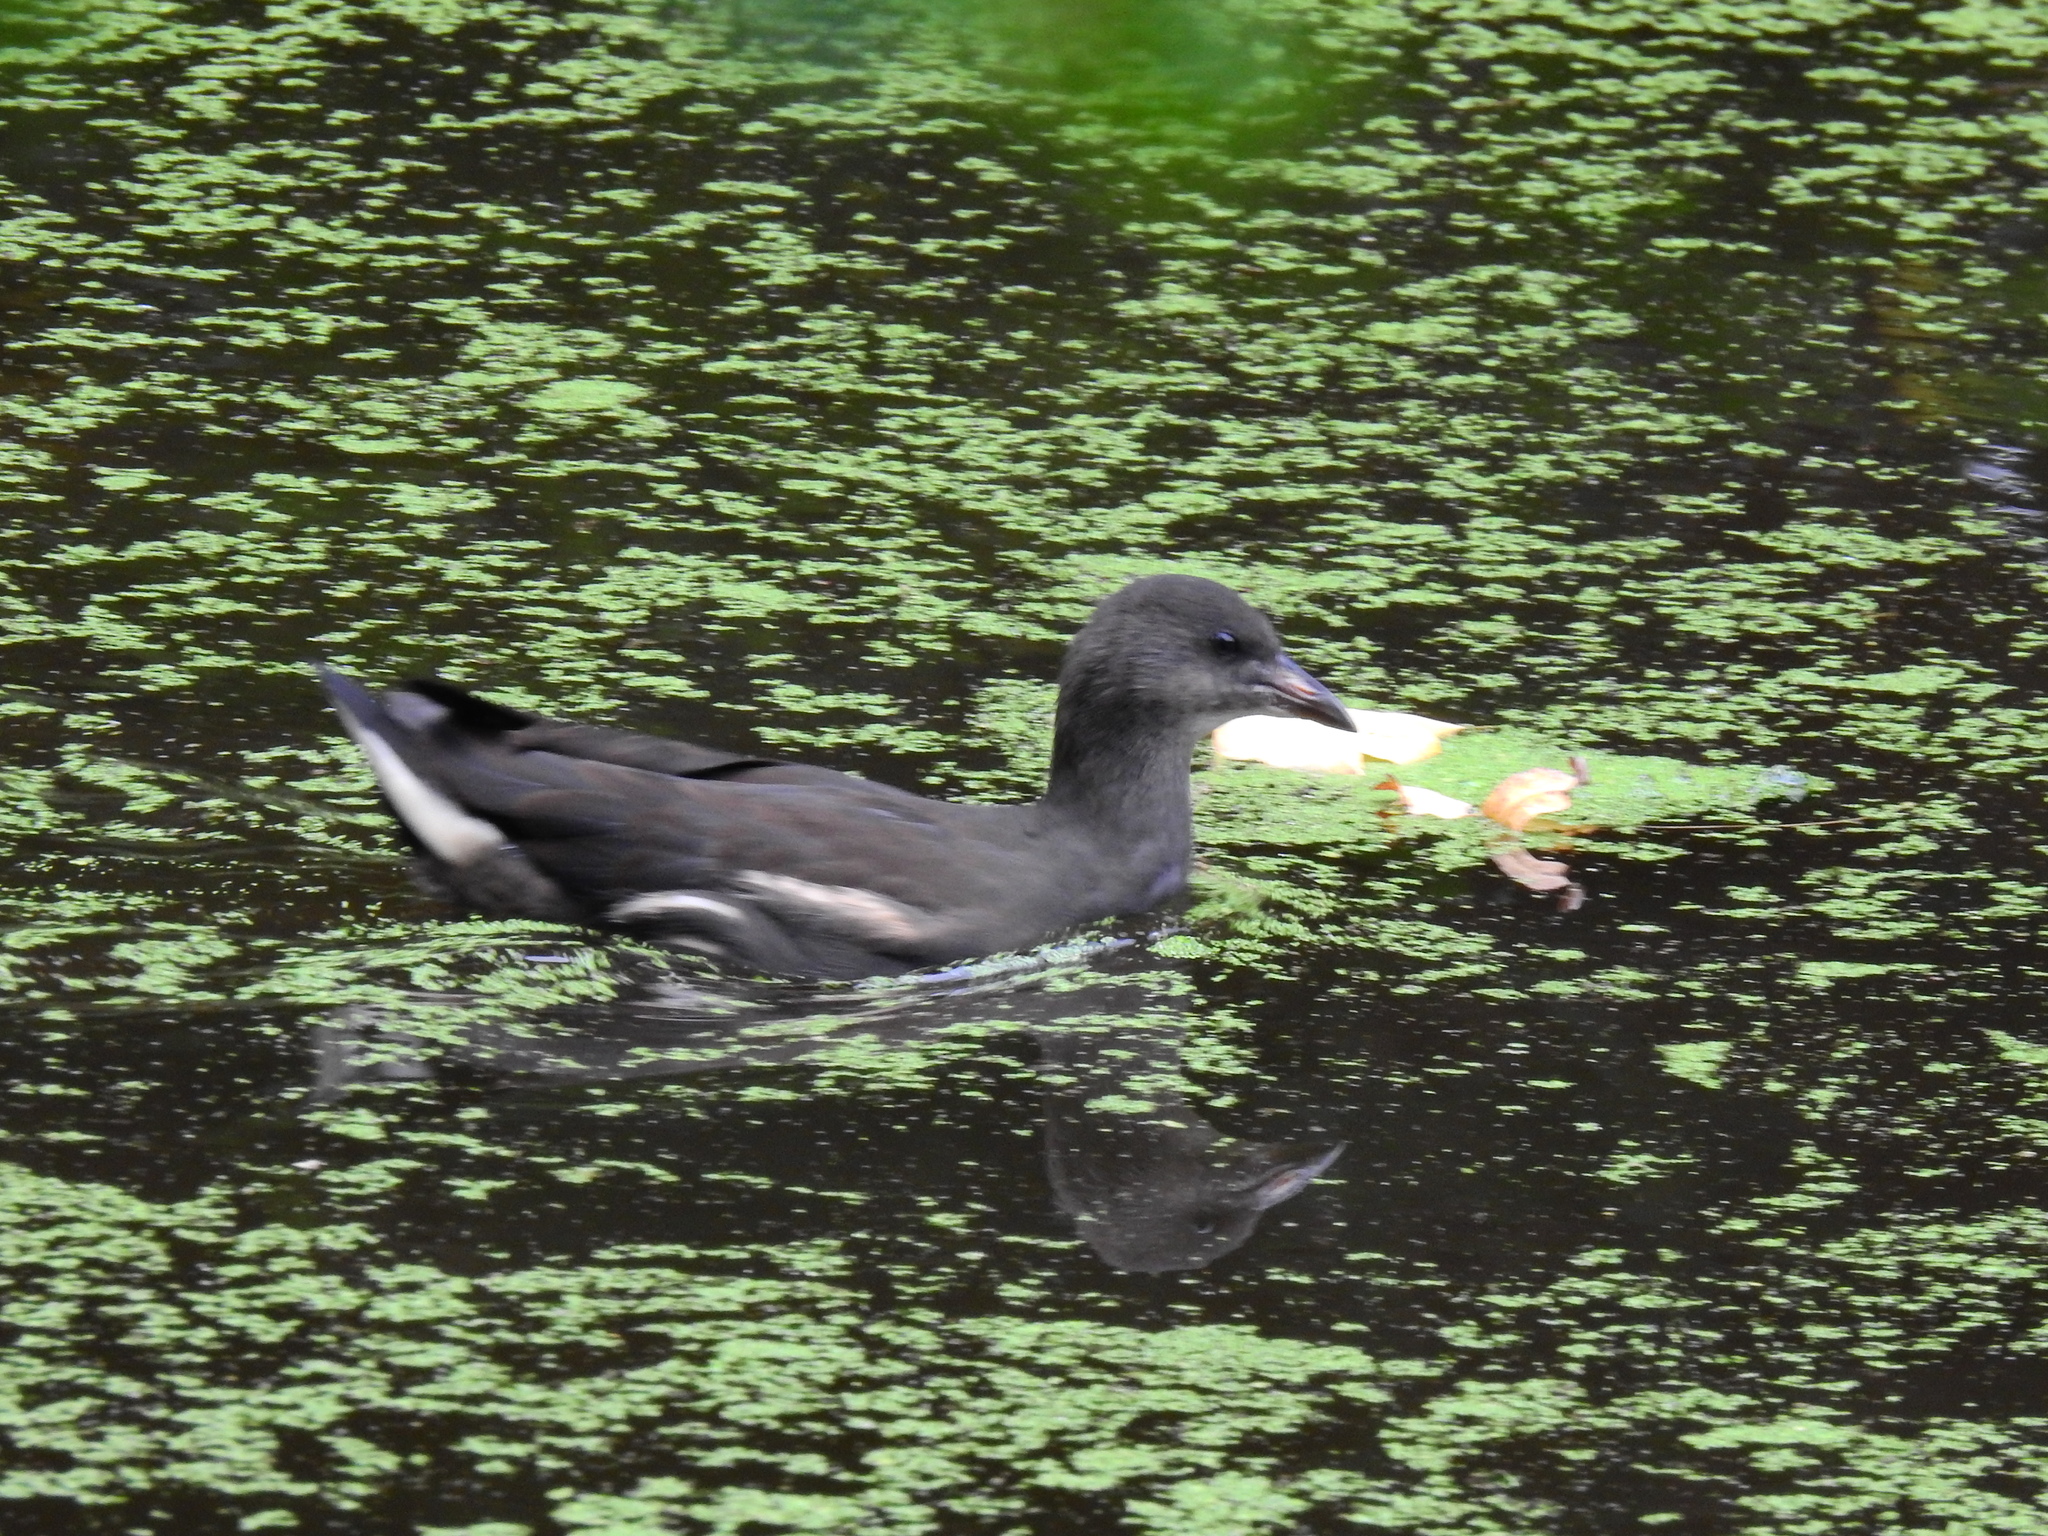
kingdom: Animalia
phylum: Chordata
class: Aves
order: Gruiformes
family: Rallidae
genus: Gallinula
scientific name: Gallinula chloropus
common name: Common moorhen
